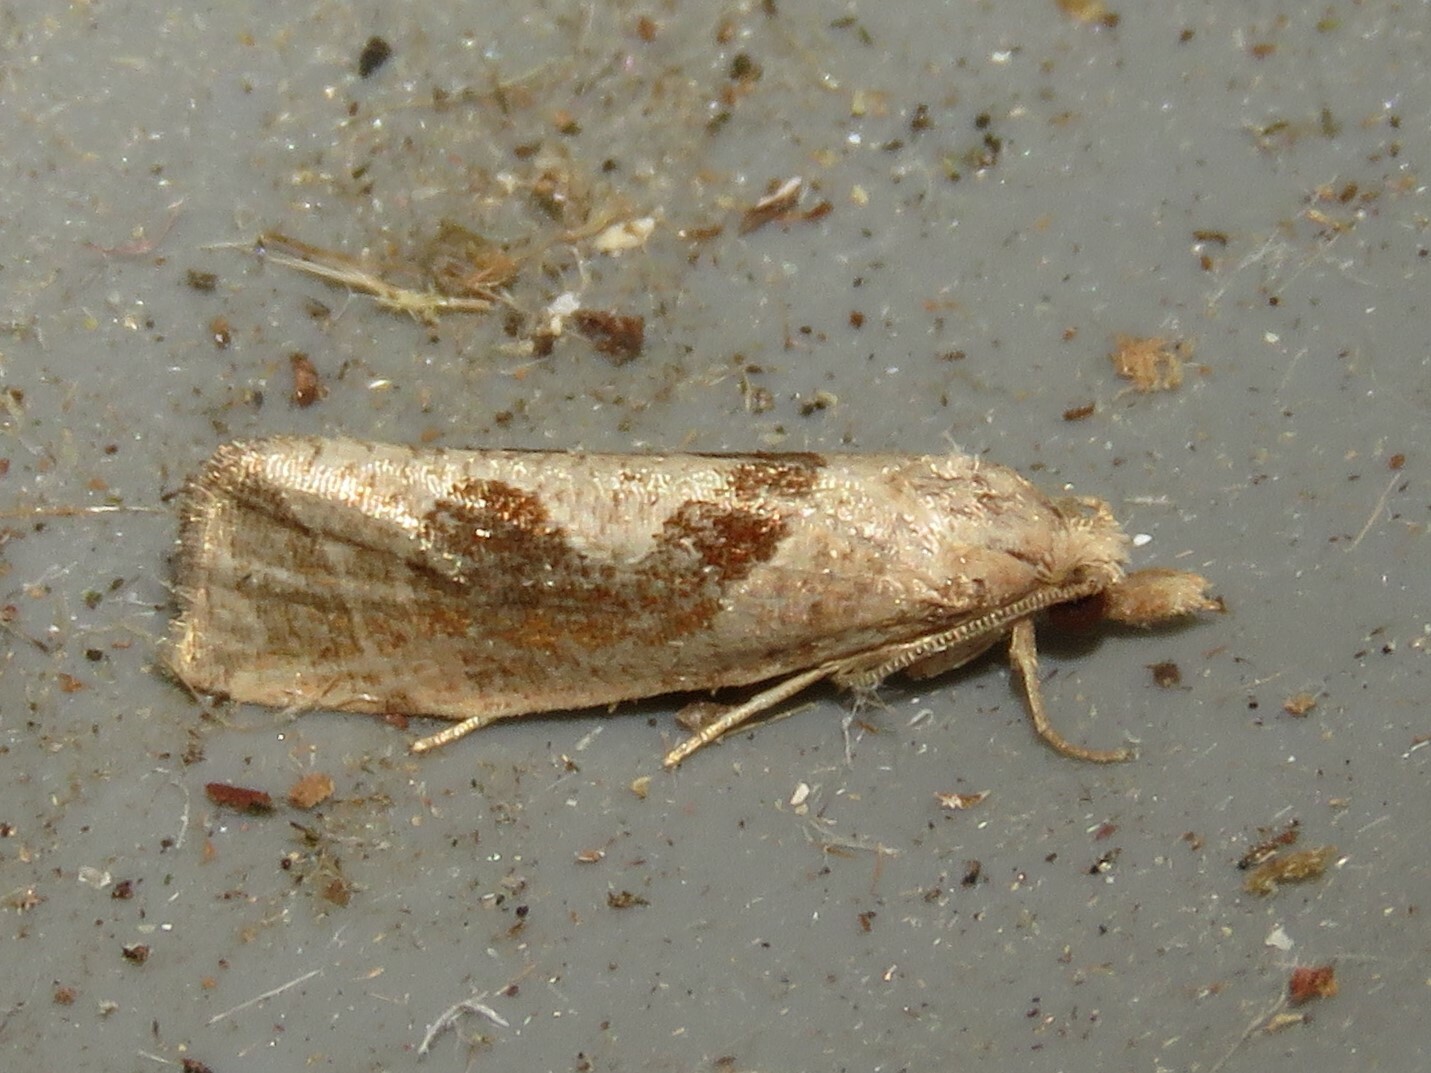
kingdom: Animalia
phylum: Arthropoda
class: Insecta
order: Lepidoptera
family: Tortricidae
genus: Pelochrista
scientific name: Pelochrista similiana
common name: Similar eucosma
